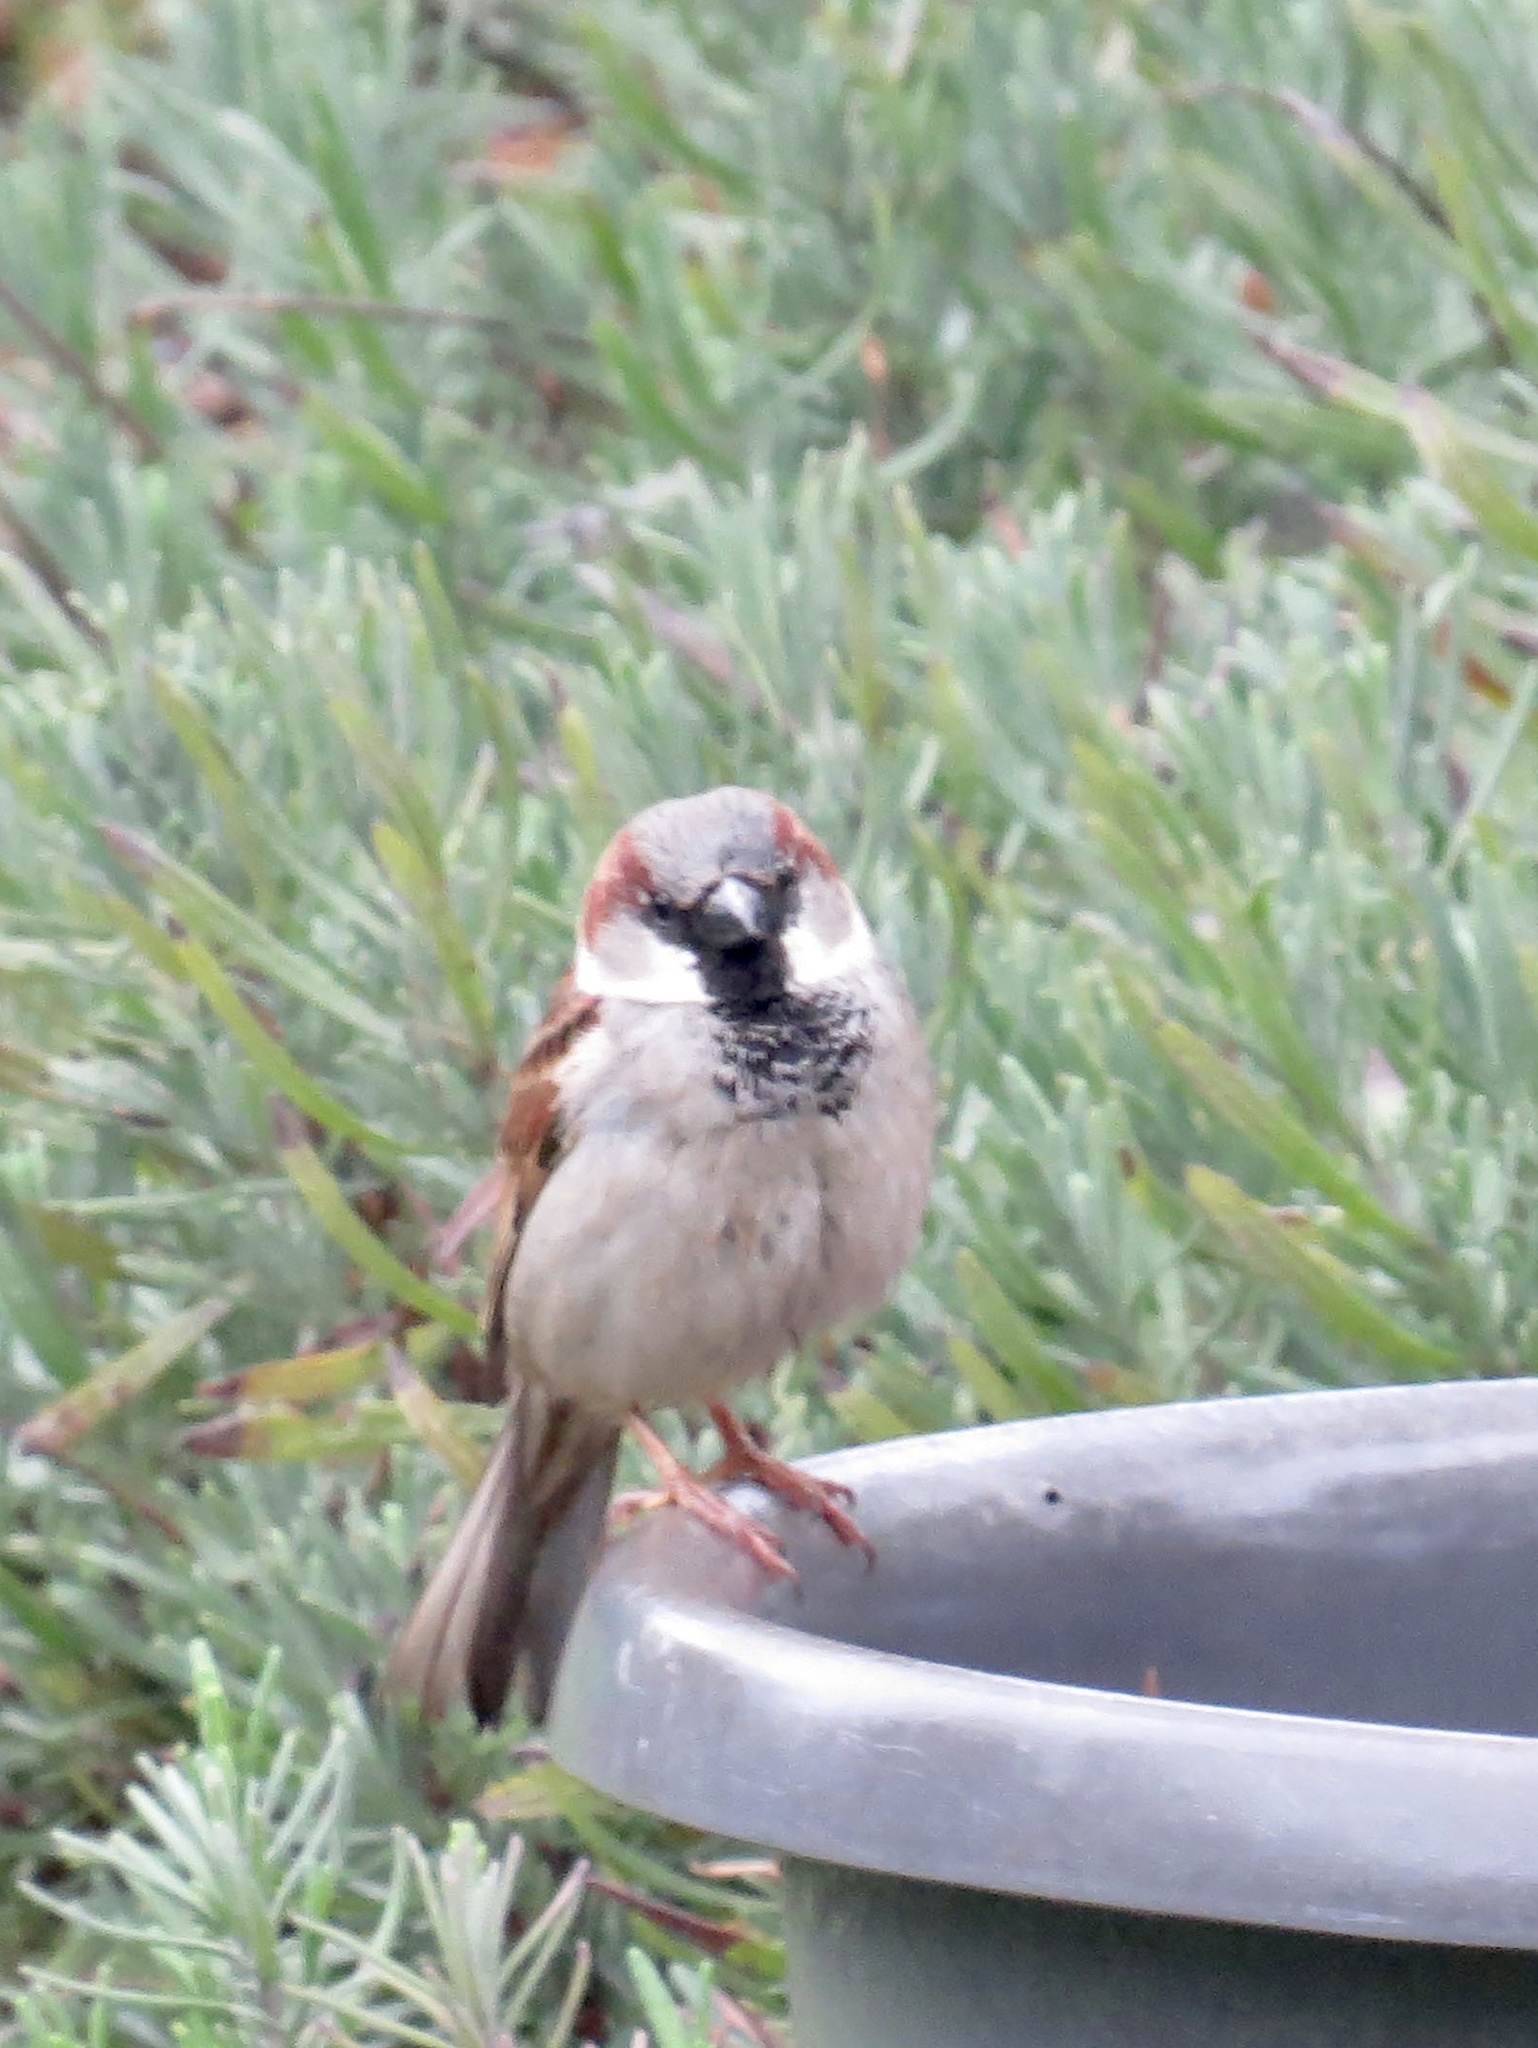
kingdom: Animalia
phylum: Chordata
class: Aves
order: Passeriformes
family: Passeridae
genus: Passer
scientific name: Passer domesticus
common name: House sparrow
